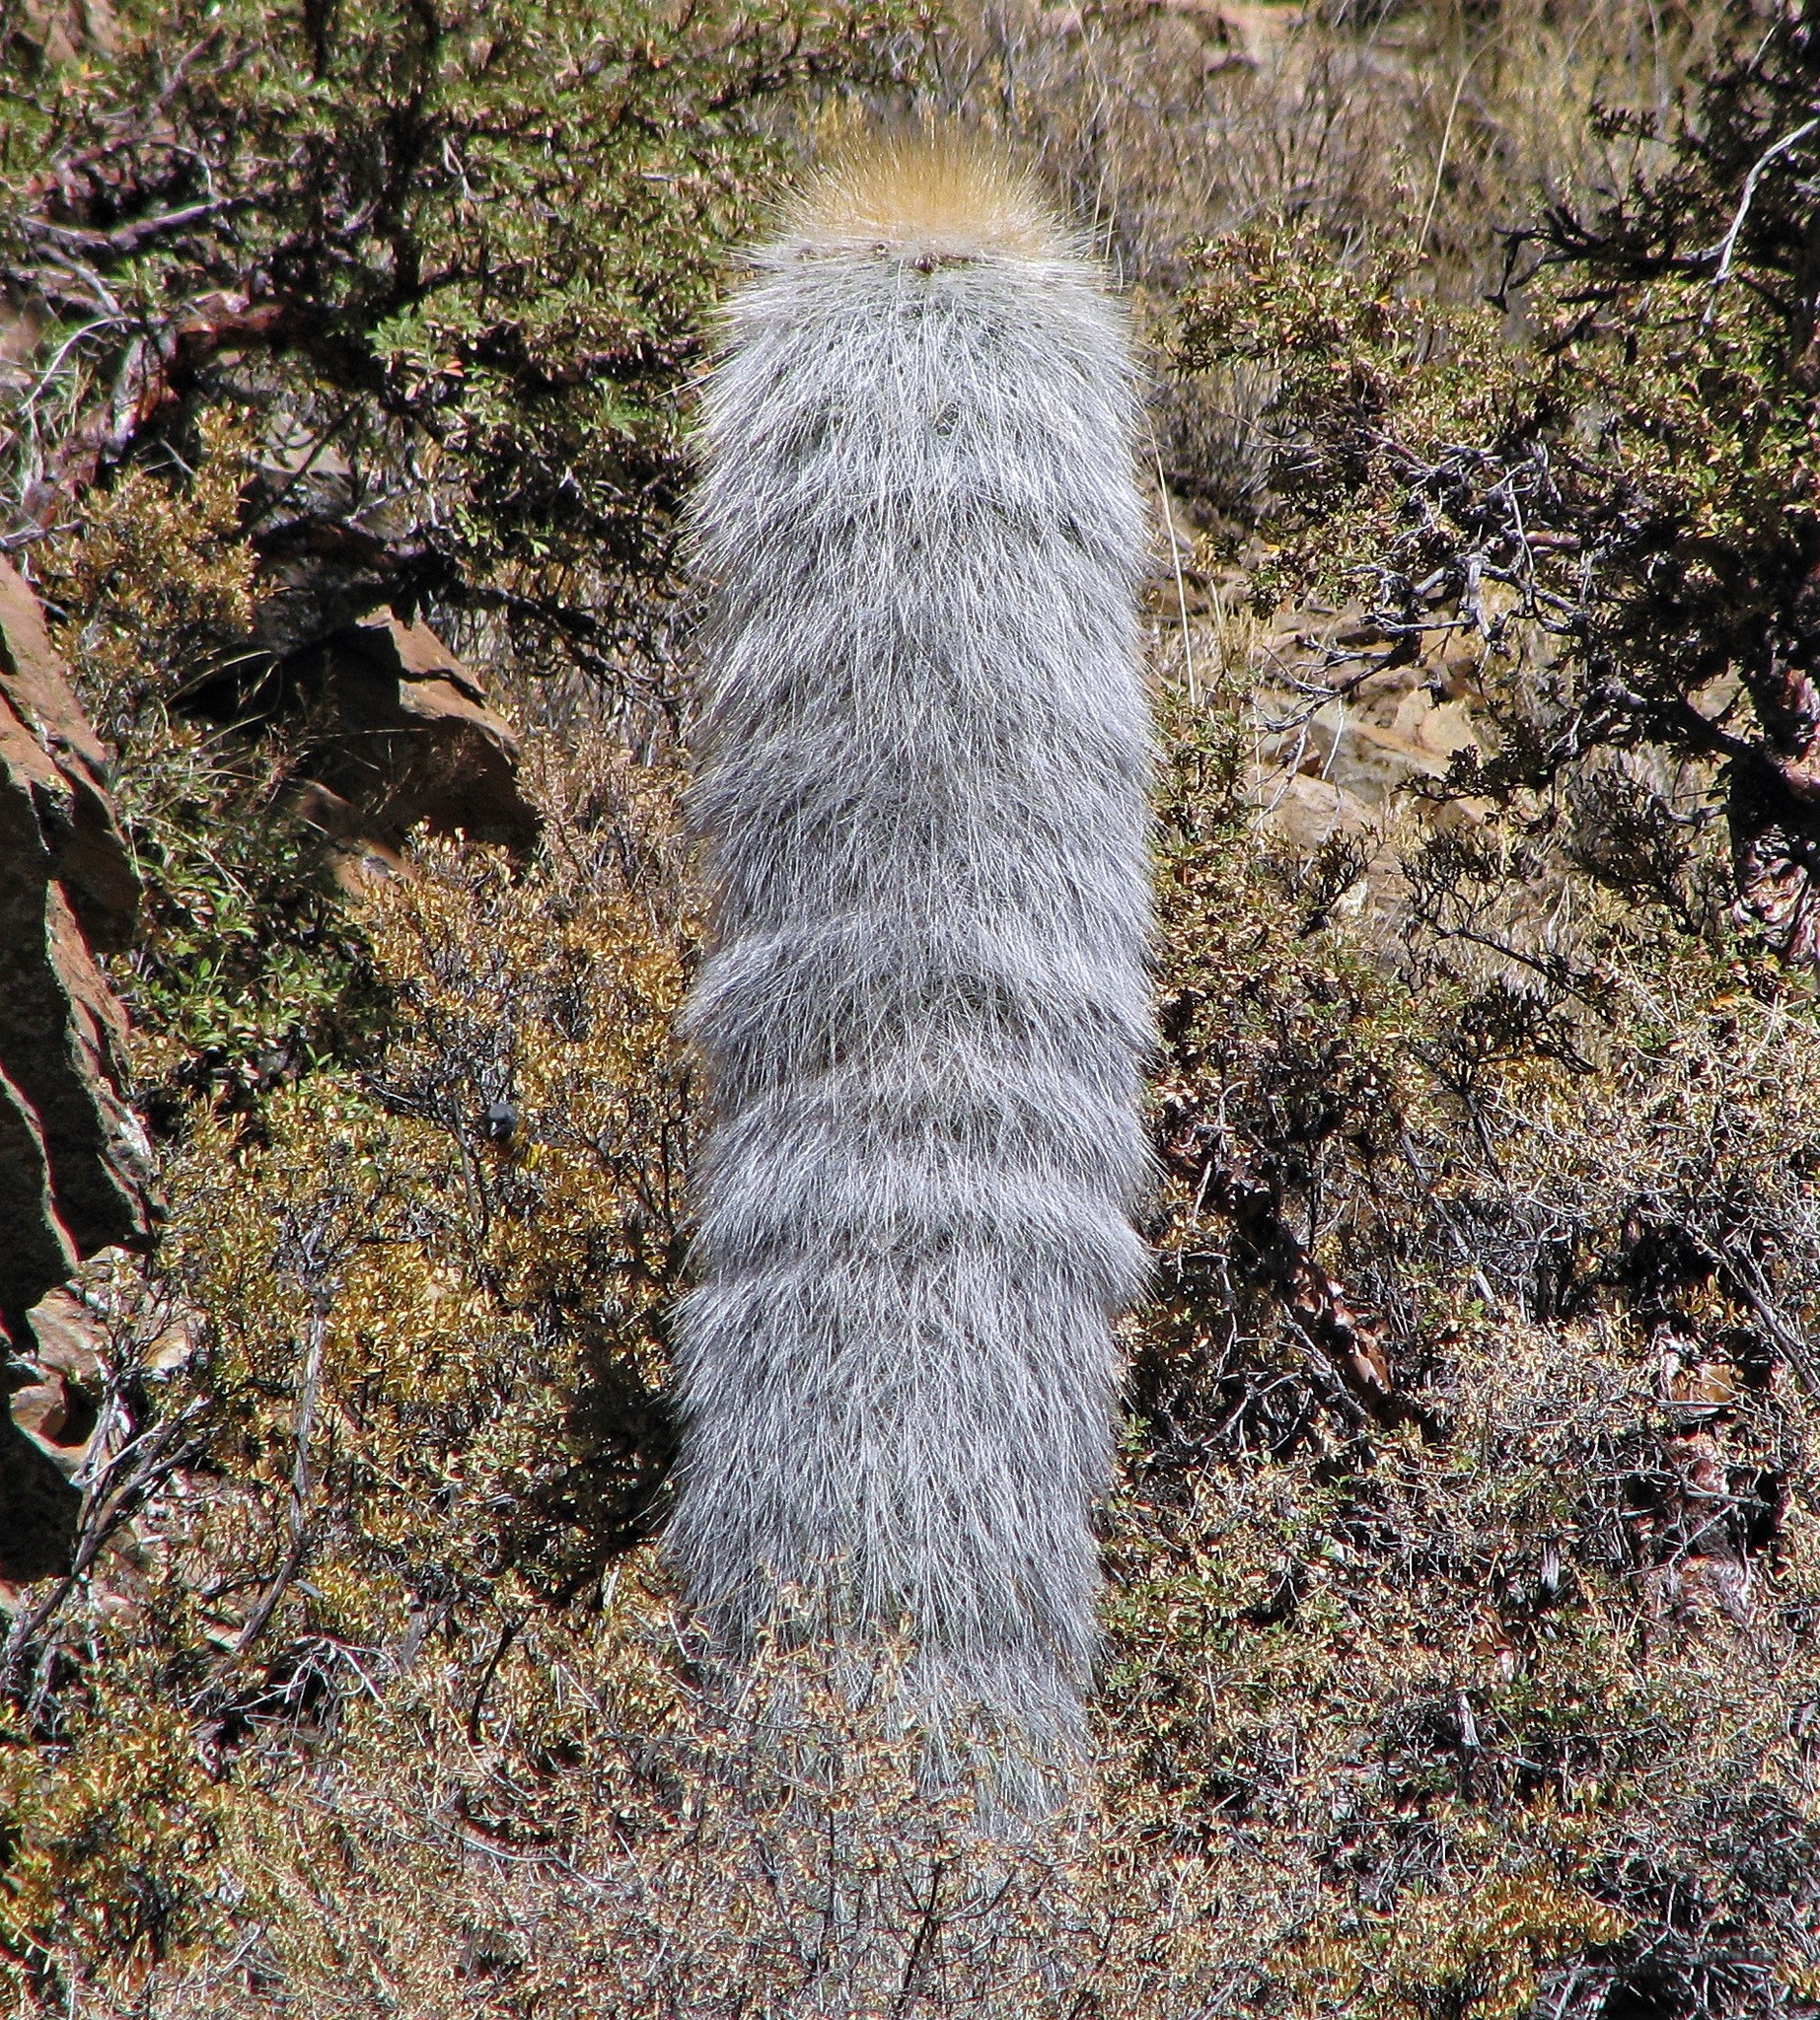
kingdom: Plantae
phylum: Tracheophyta
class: Magnoliopsida
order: Caryophyllales
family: Cactaceae
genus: Soehrensia
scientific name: Soehrensia tarijensis
